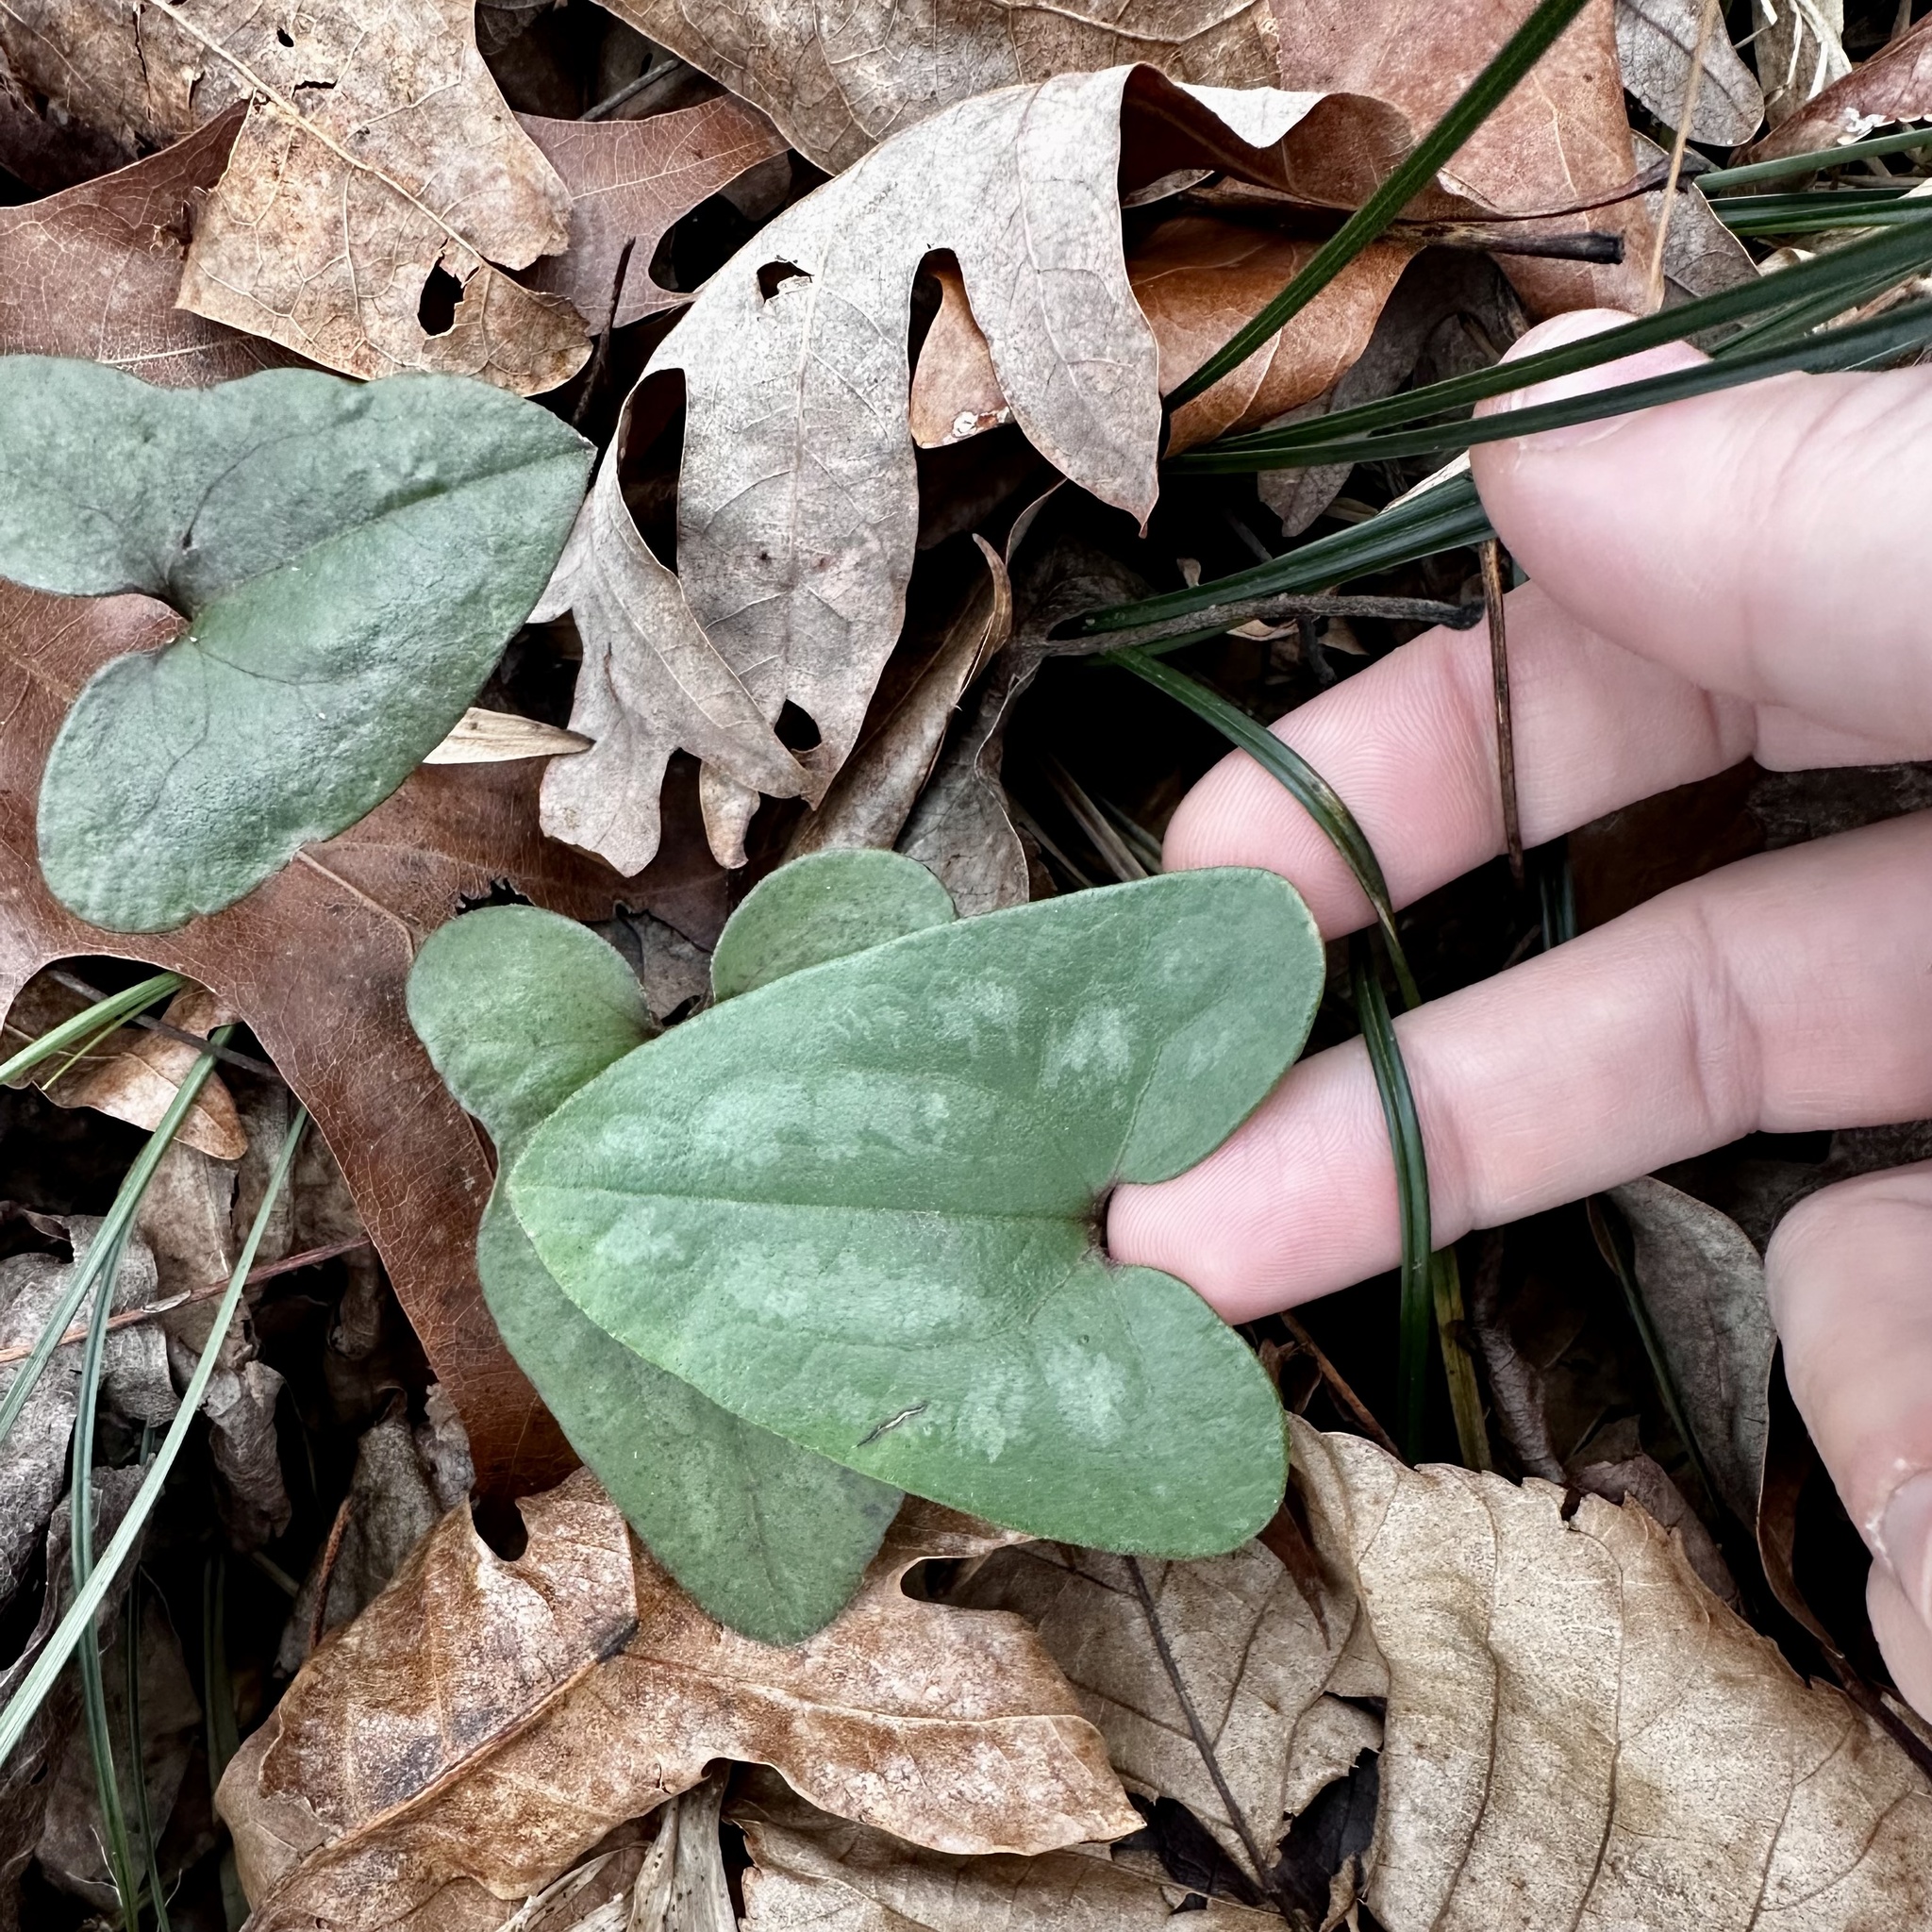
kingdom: Plantae
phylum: Tracheophyta
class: Magnoliopsida
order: Piperales
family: Aristolochiaceae
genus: Hexastylis
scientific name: Hexastylis arifolia
